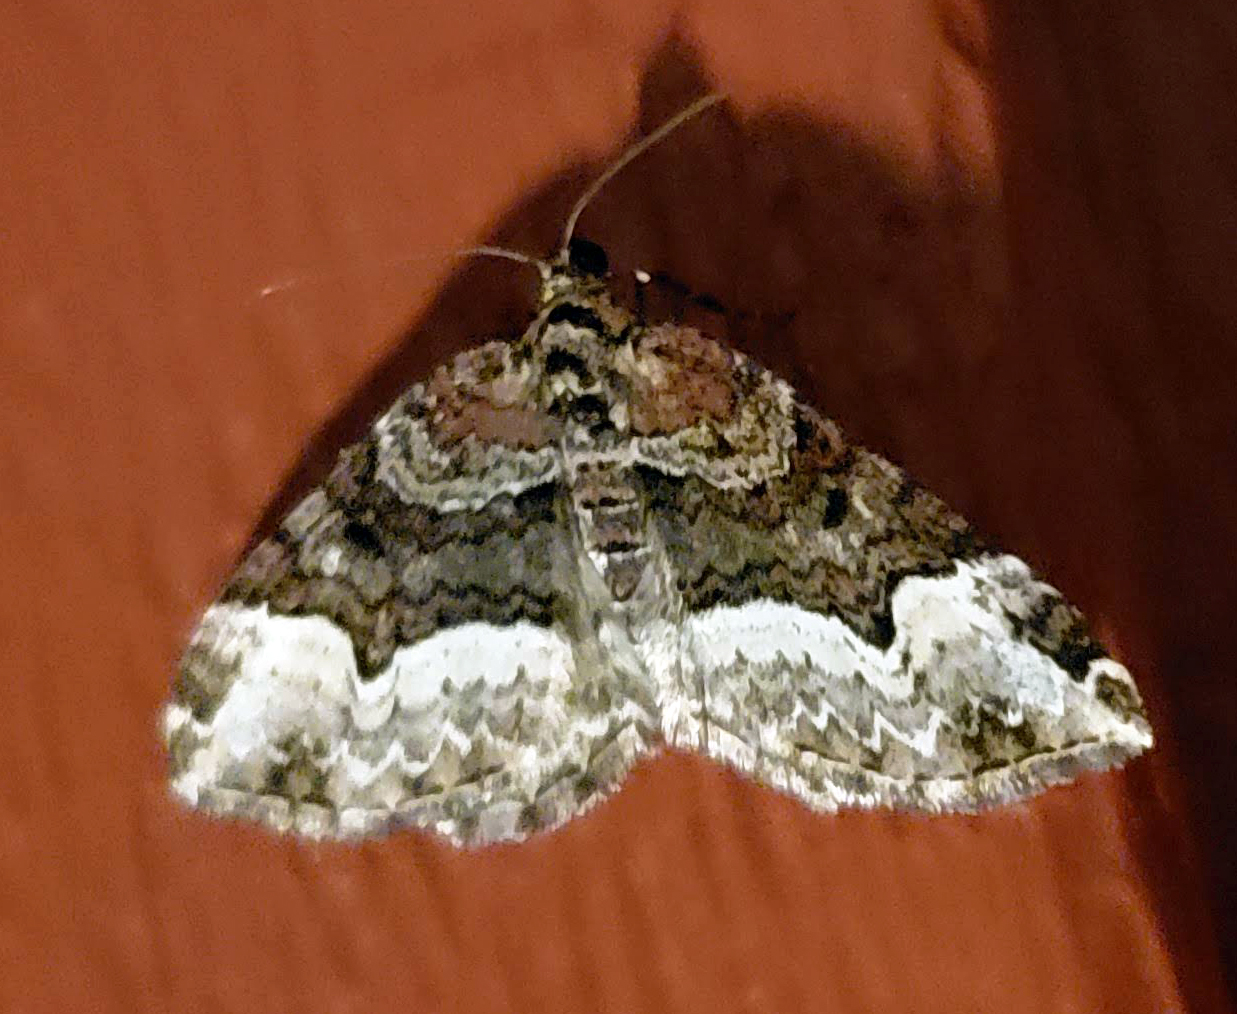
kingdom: Animalia
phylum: Arthropoda
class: Insecta
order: Lepidoptera
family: Geometridae
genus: Euphyia
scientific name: Euphyia intermediata
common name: Sharp-angled carpet
